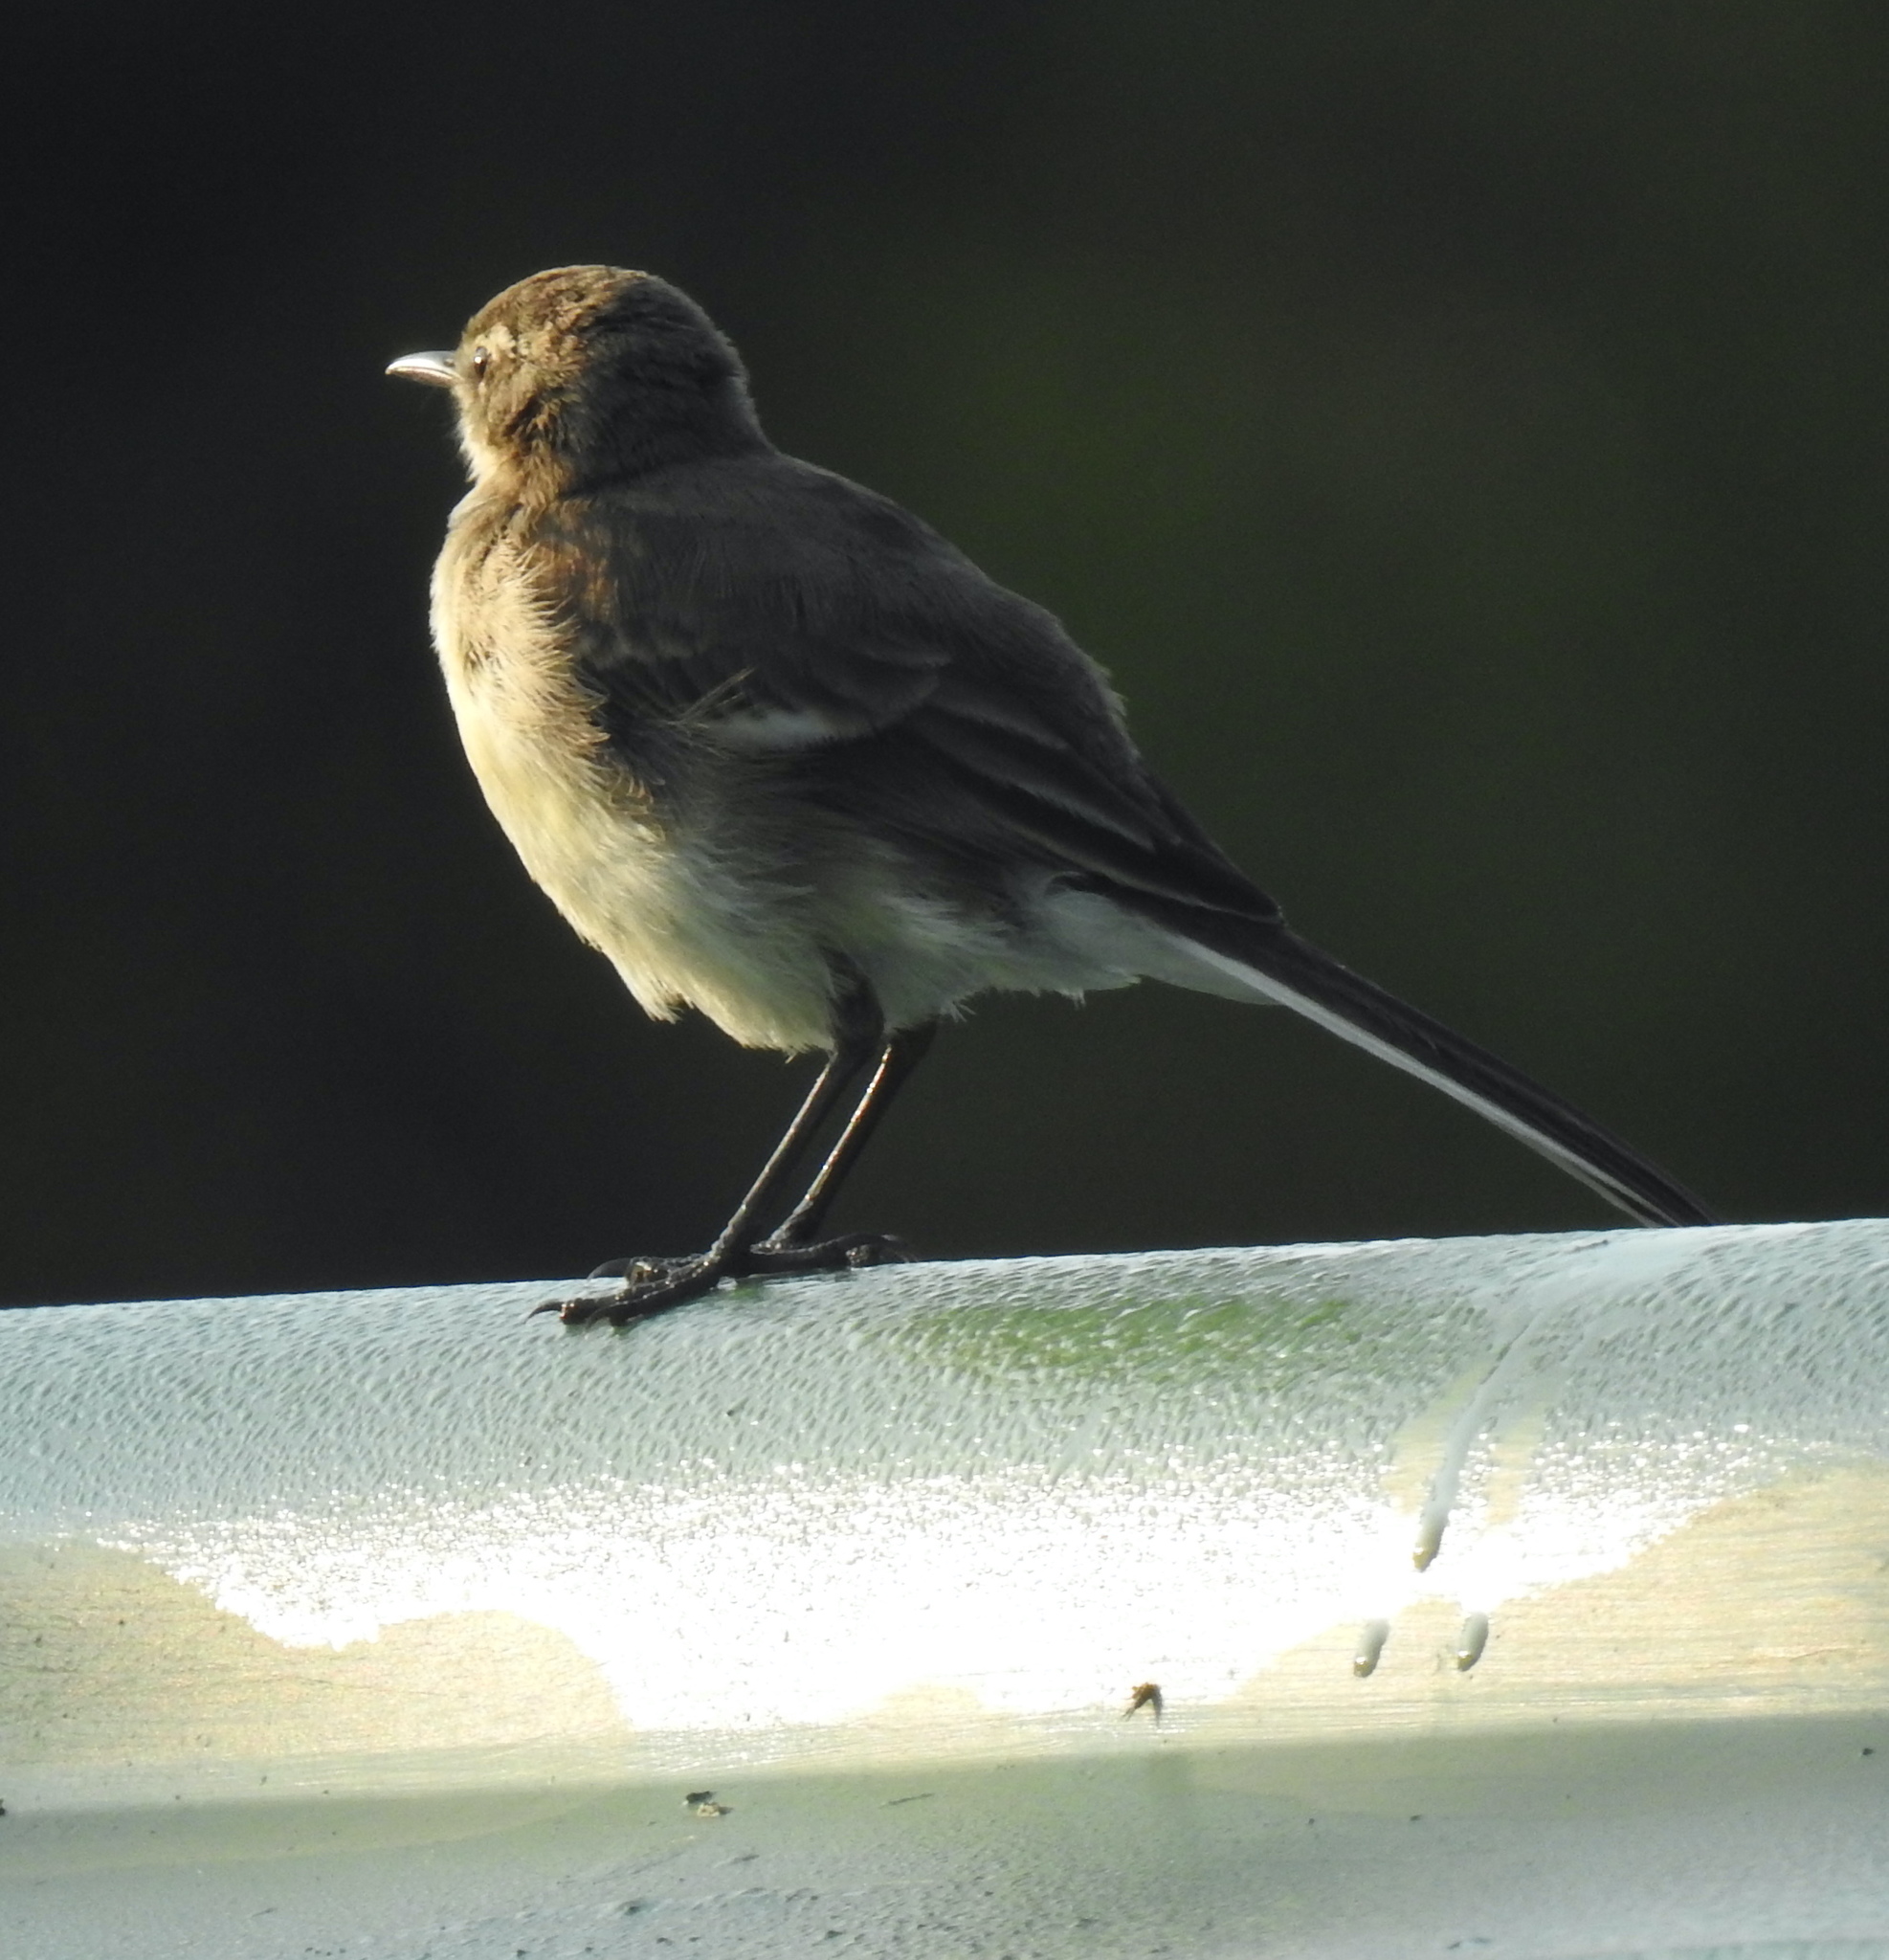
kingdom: Animalia
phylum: Chordata
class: Aves
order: Passeriformes
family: Motacillidae
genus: Motacilla
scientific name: Motacilla capensis
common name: Cape wagtail
